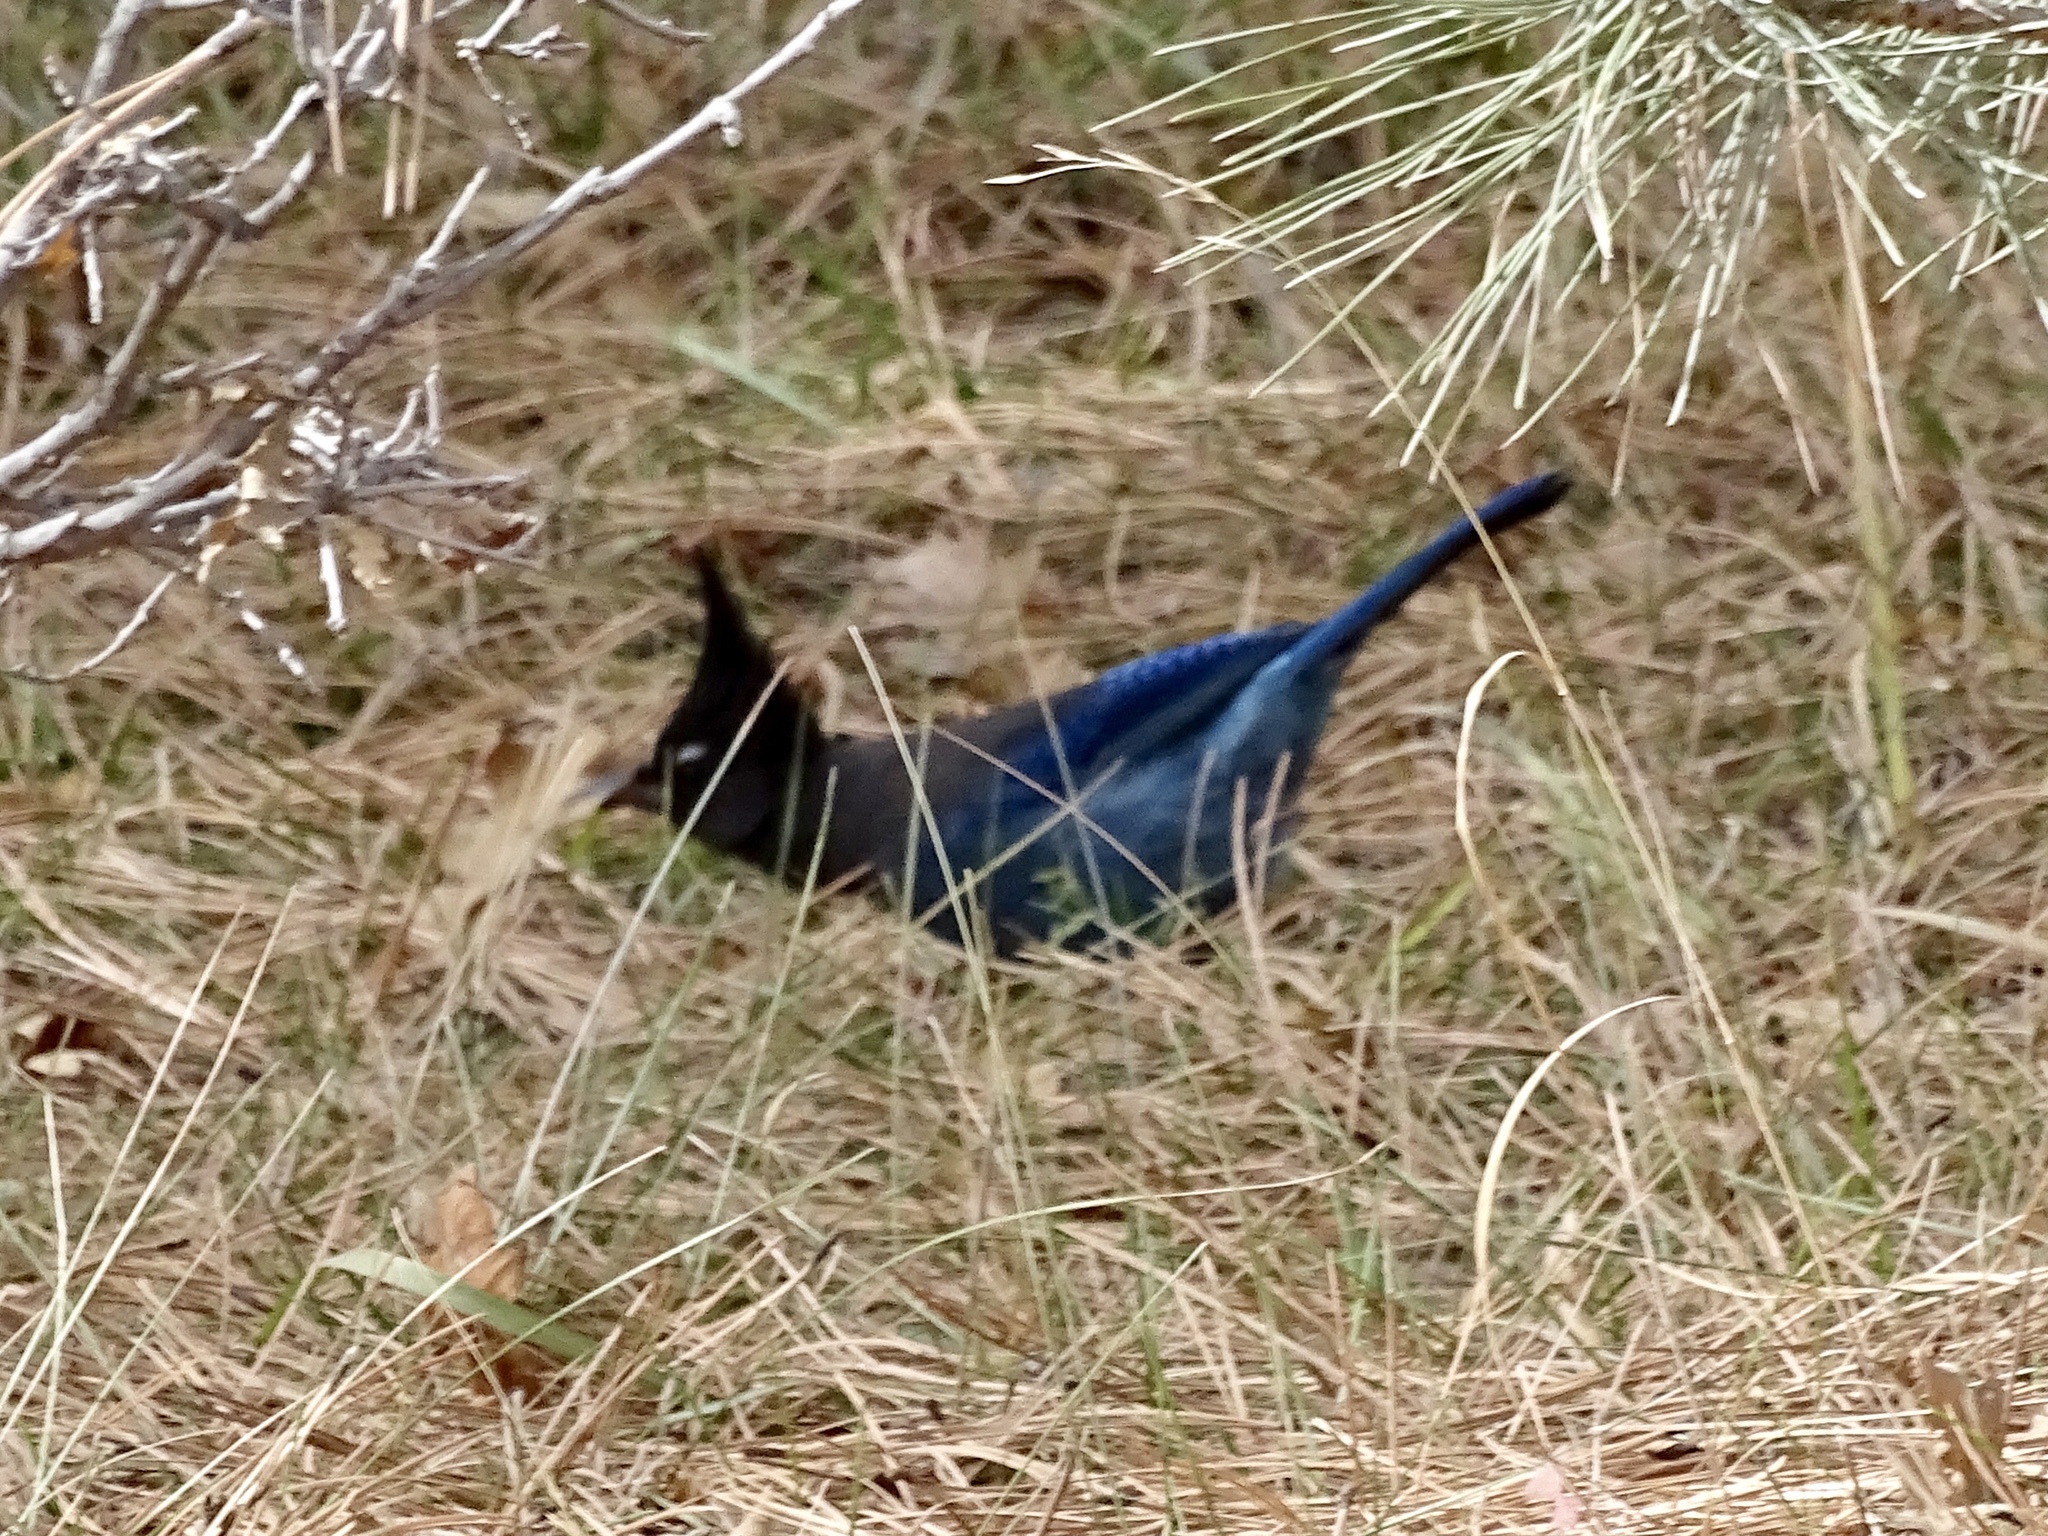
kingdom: Animalia
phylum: Chordata
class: Aves
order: Passeriformes
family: Corvidae
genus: Cyanocitta
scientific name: Cyanocitta stelleri
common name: Steller's jay
